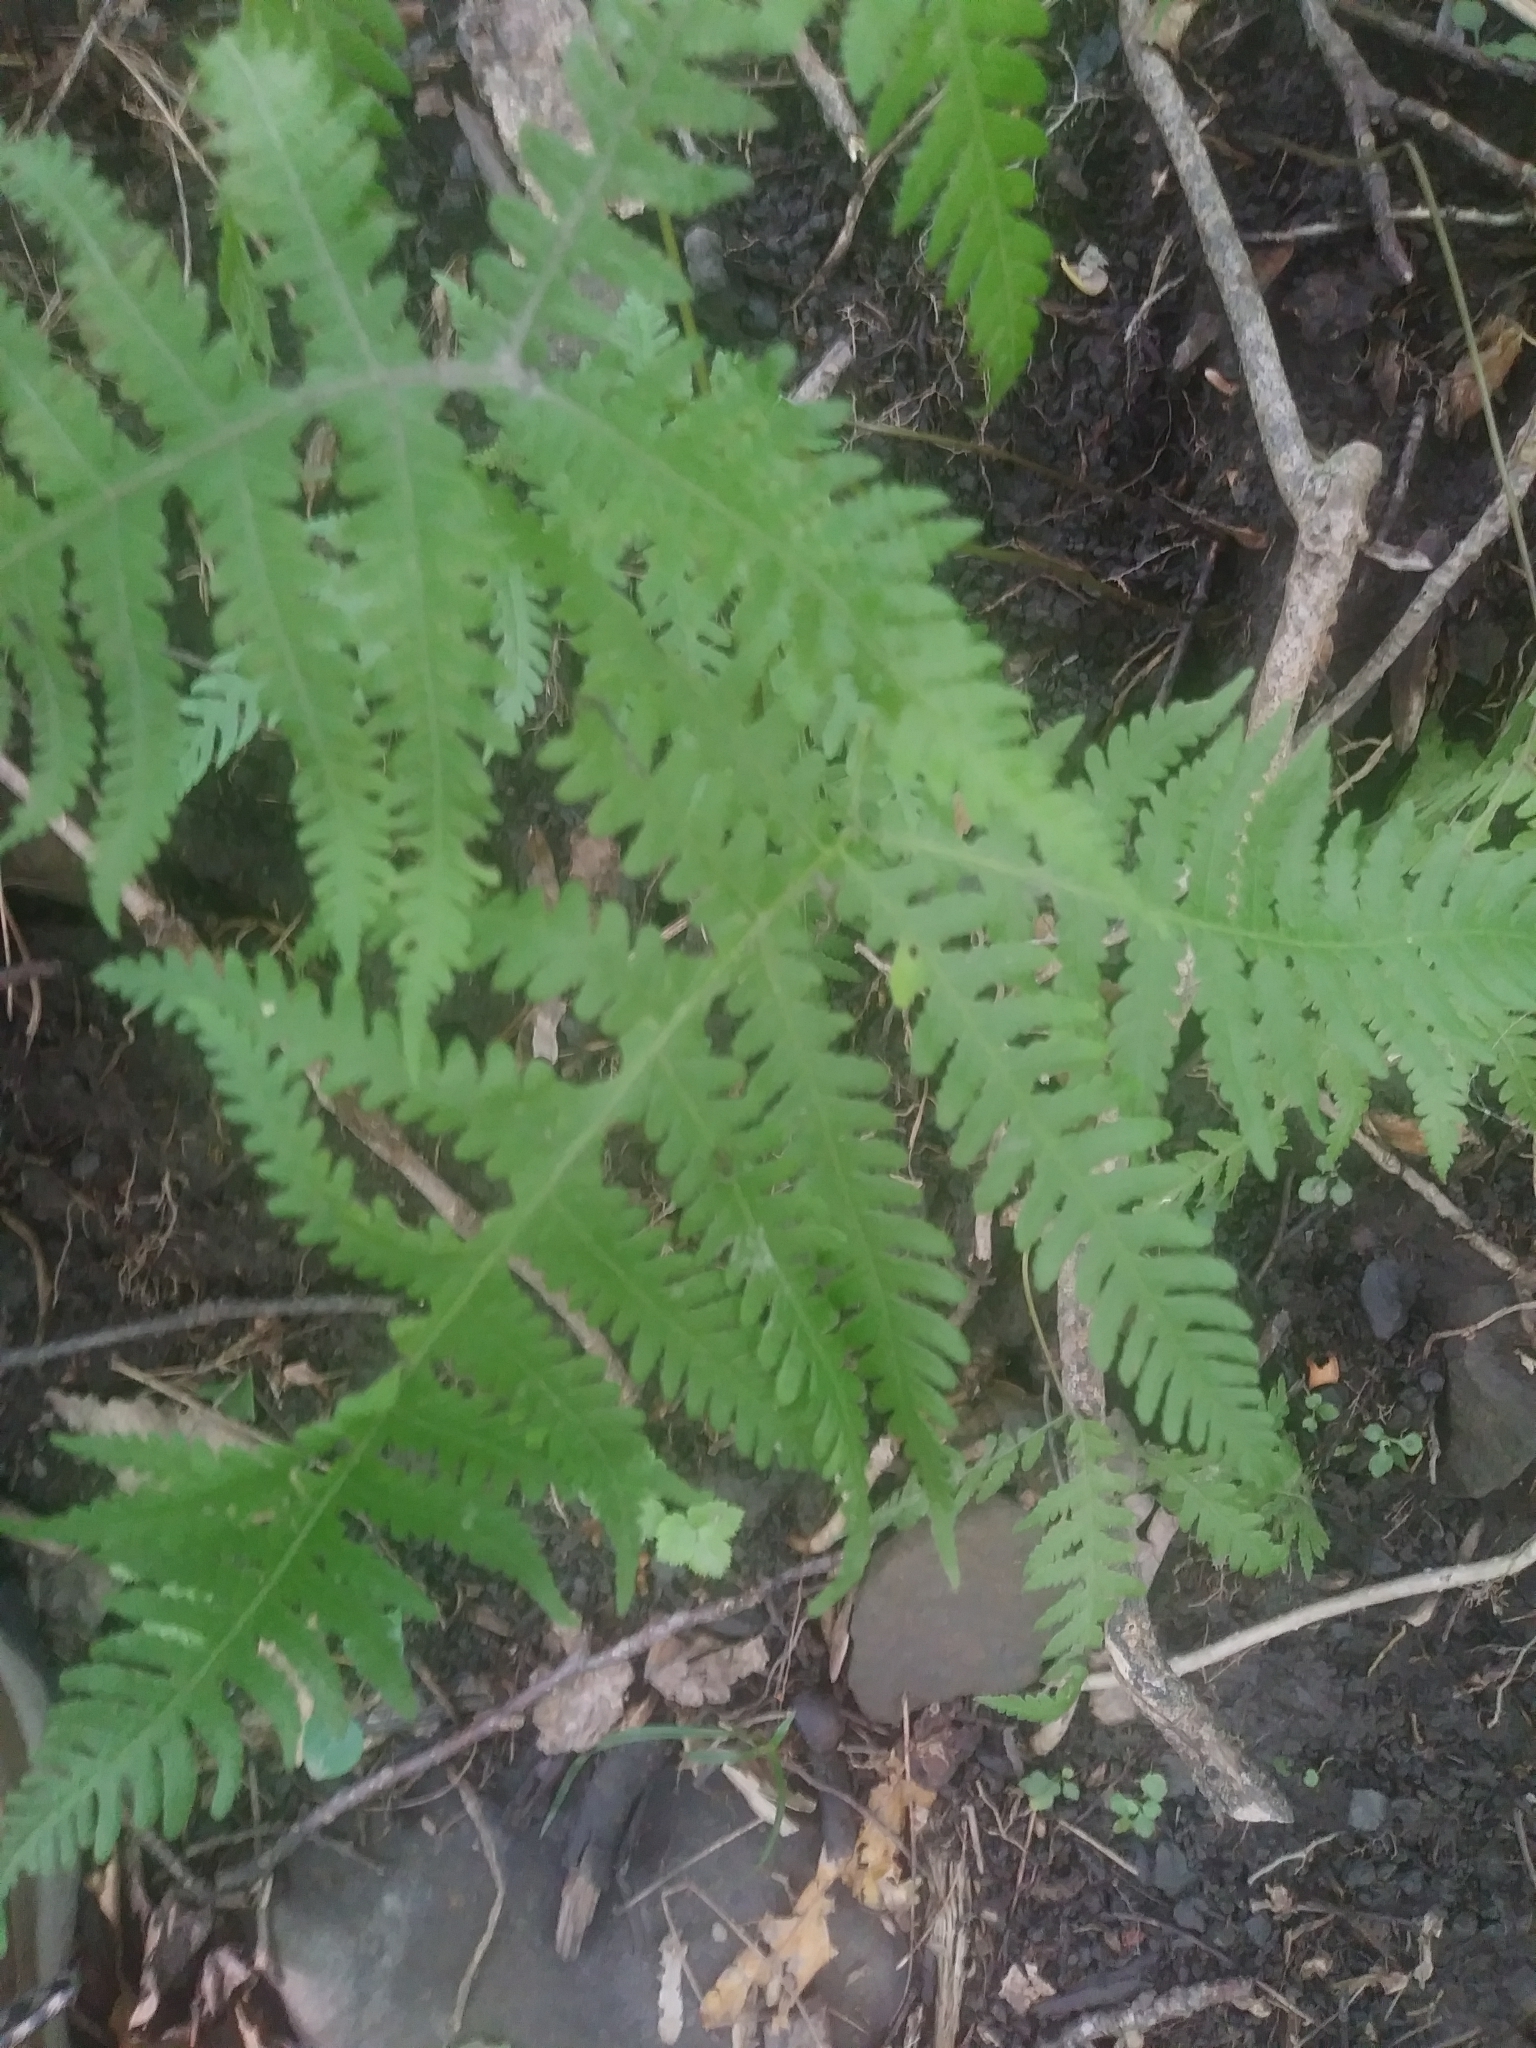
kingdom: Plantae
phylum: Tracheophyta
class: Polypodiopsida
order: Polypodiales
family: Thelypteridaceae
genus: Phegopteris
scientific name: Phegopteris hexagonoptera
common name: Broad beech fern
